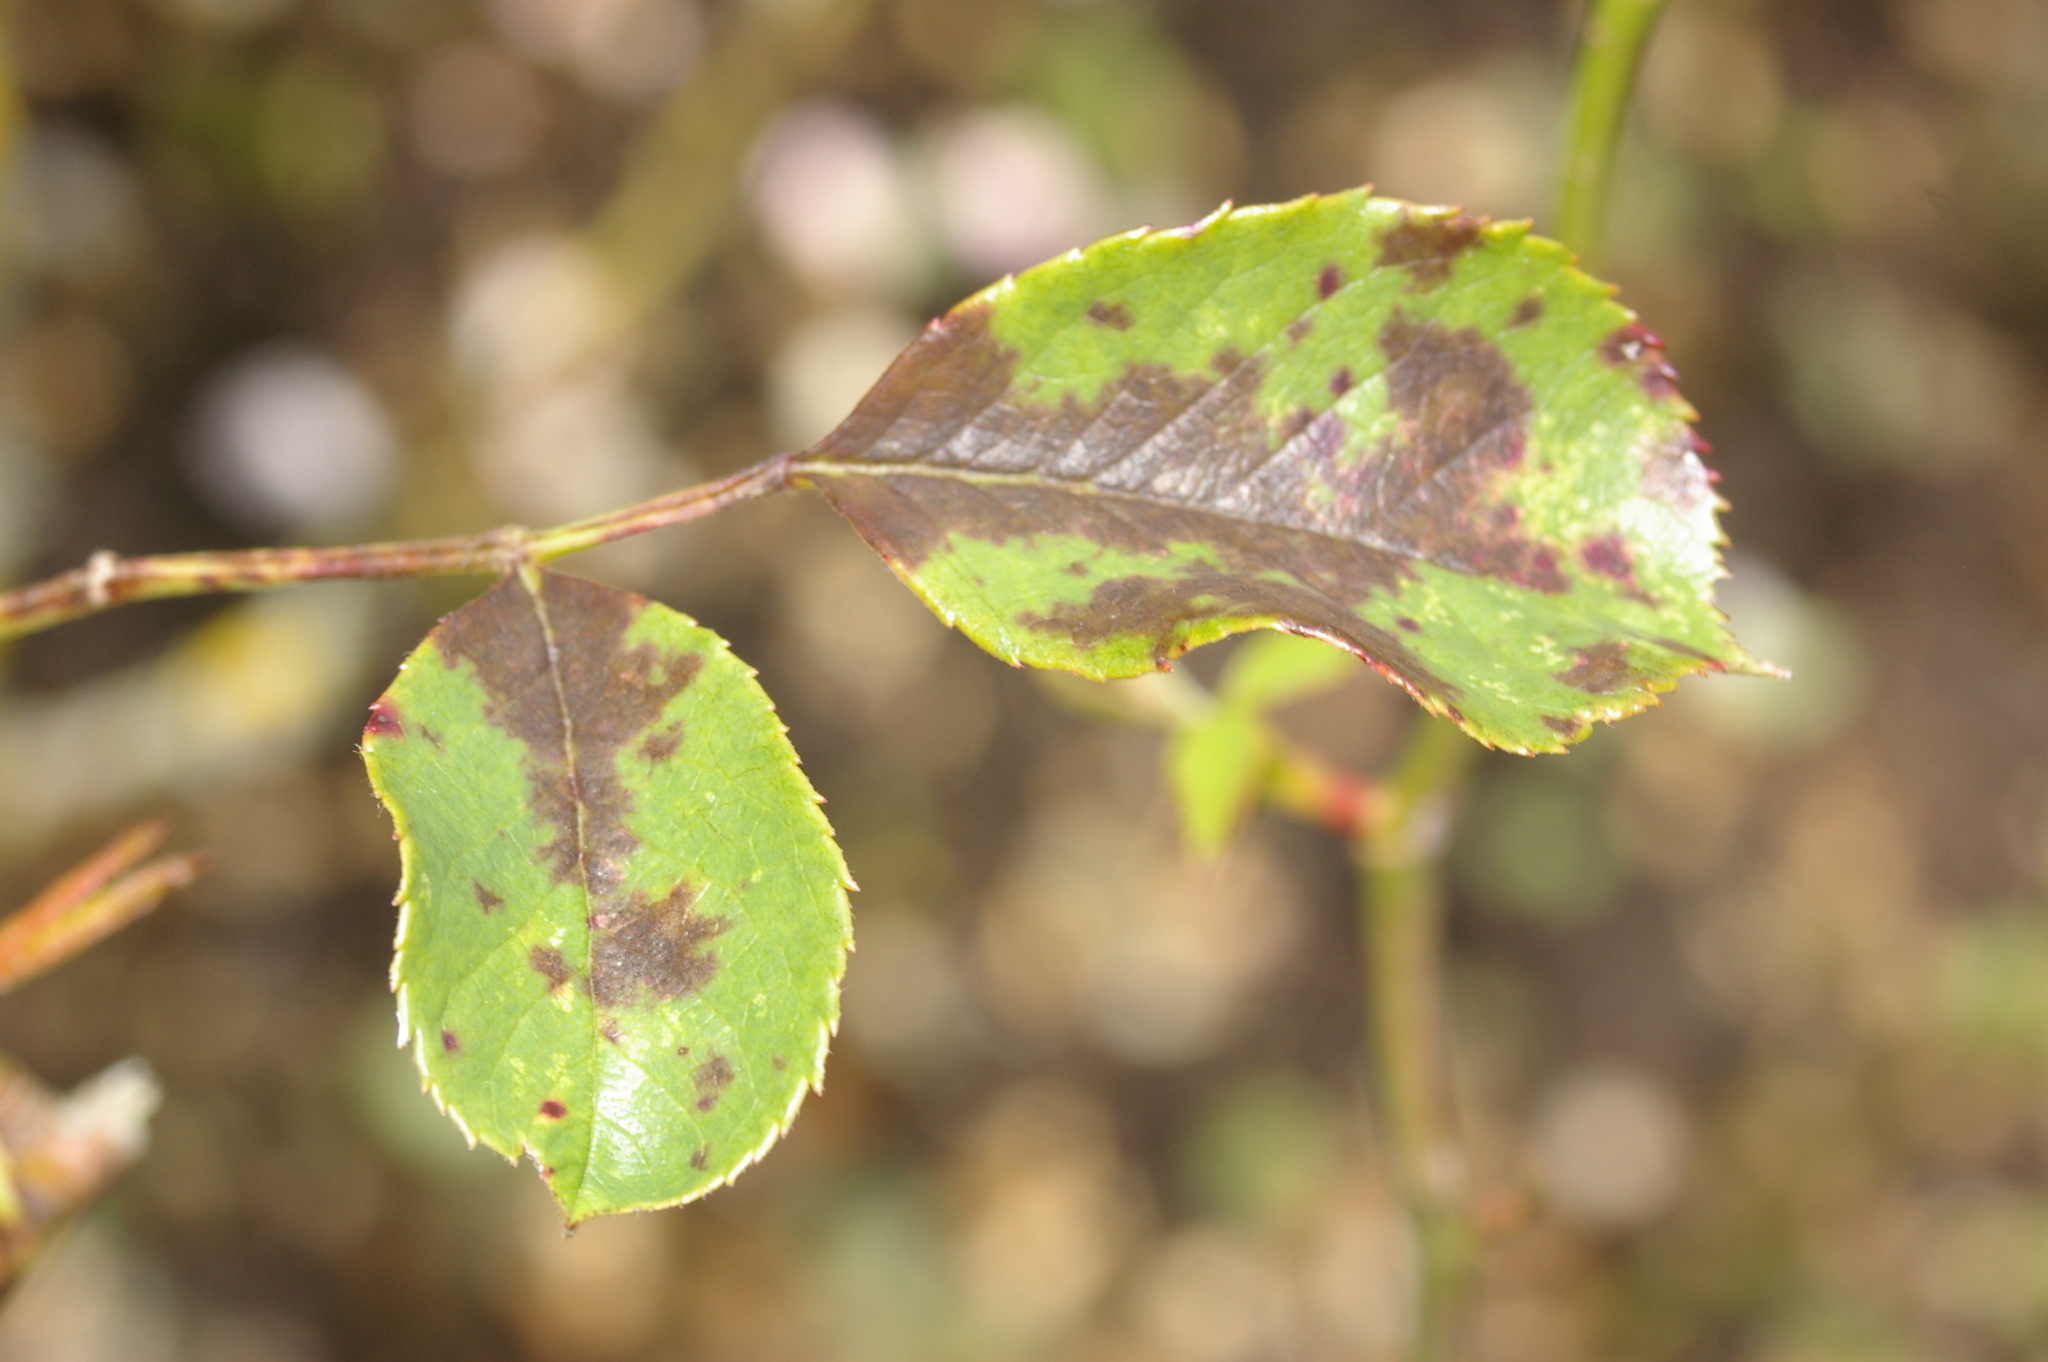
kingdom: Fungi
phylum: Ascomycota
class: Leotiomycetes
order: Helotiales
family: Drepanopezizaceae
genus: Diplocarpon
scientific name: Diplocarpon rosae
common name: Rose black-spot
